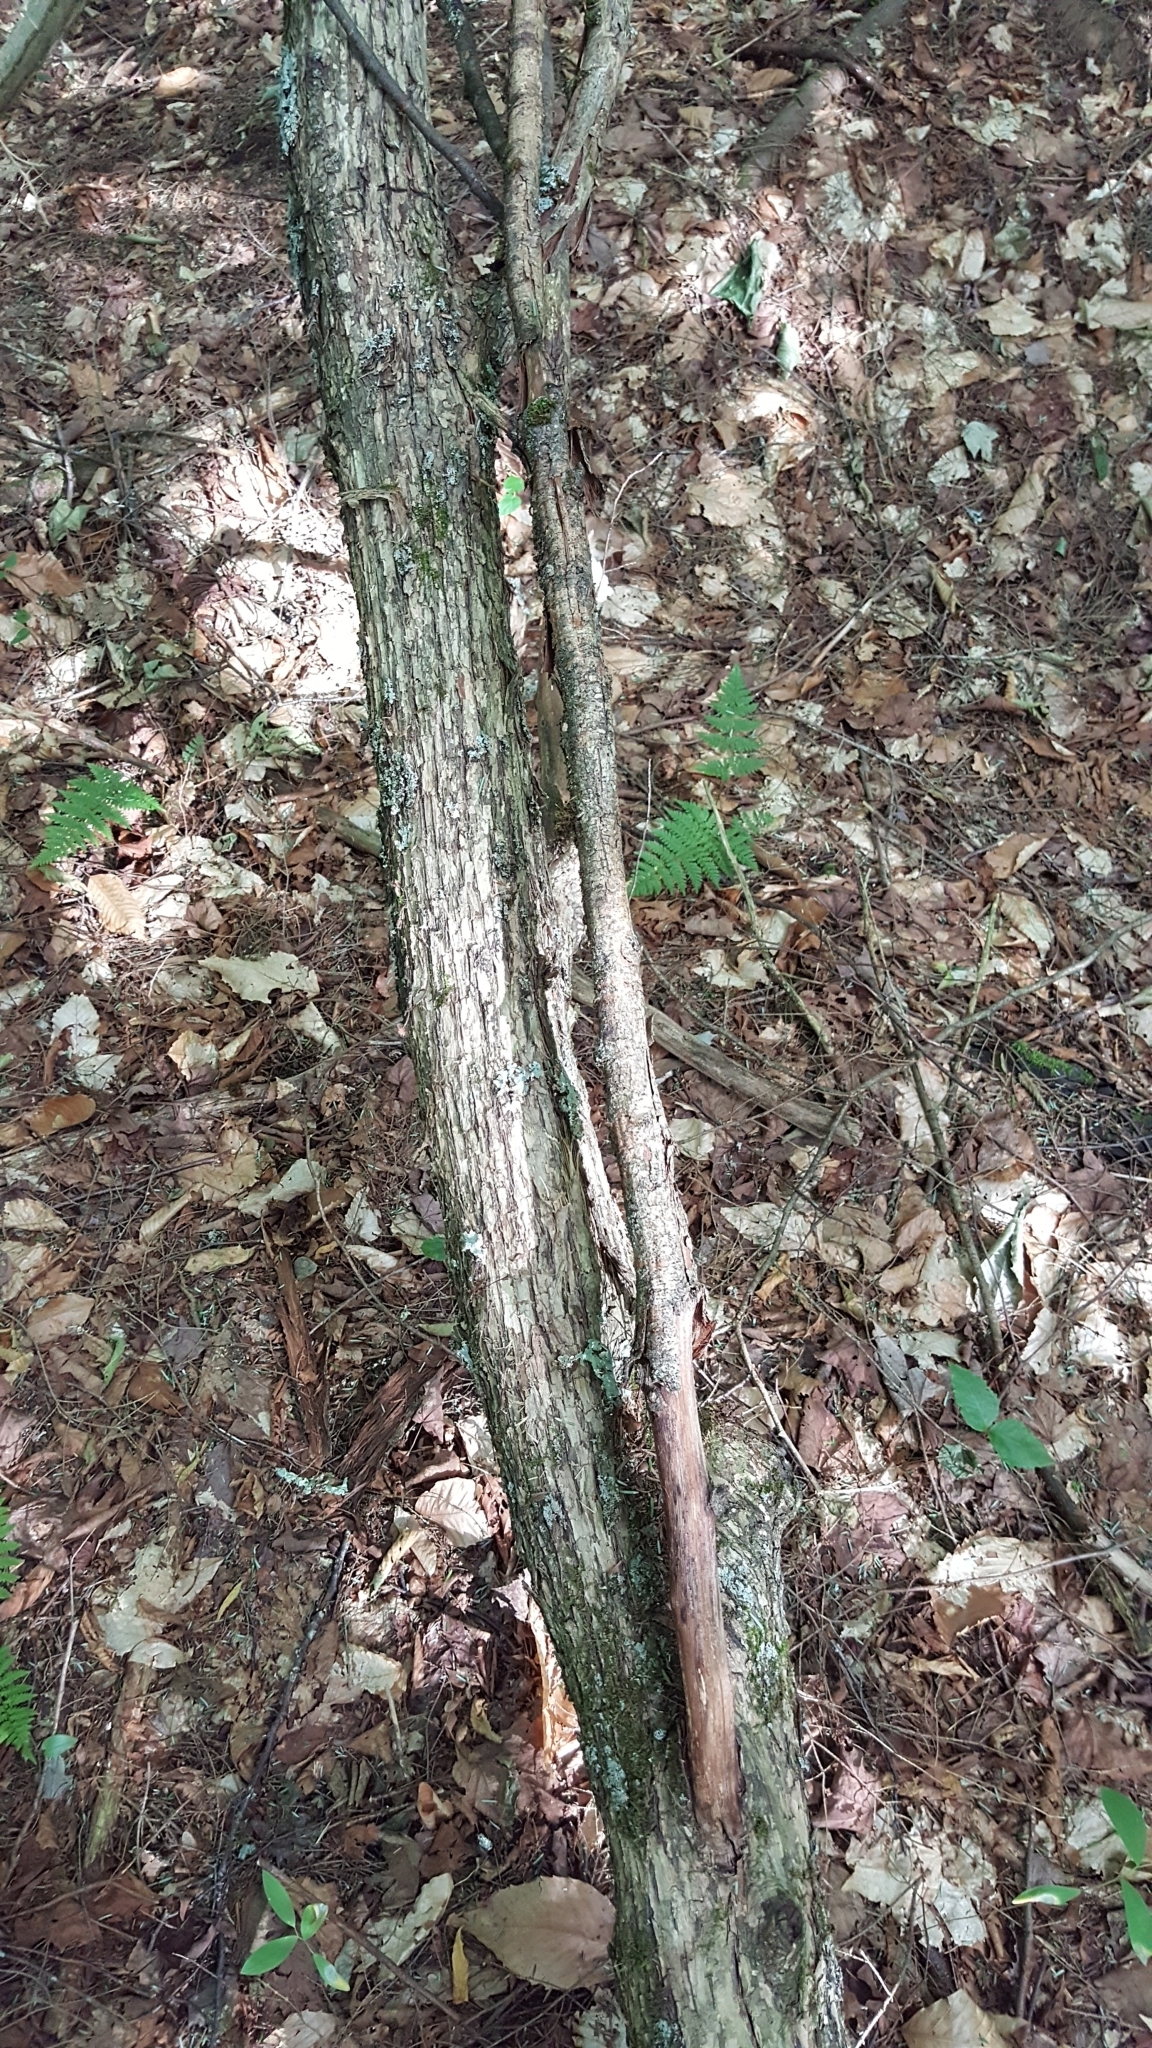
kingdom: Plantae
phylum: Tracheophyta
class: Magnoliopsida
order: Fagales
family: Betulaceae
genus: Ostrya
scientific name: Ostrya virginiana
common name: Ironwood
